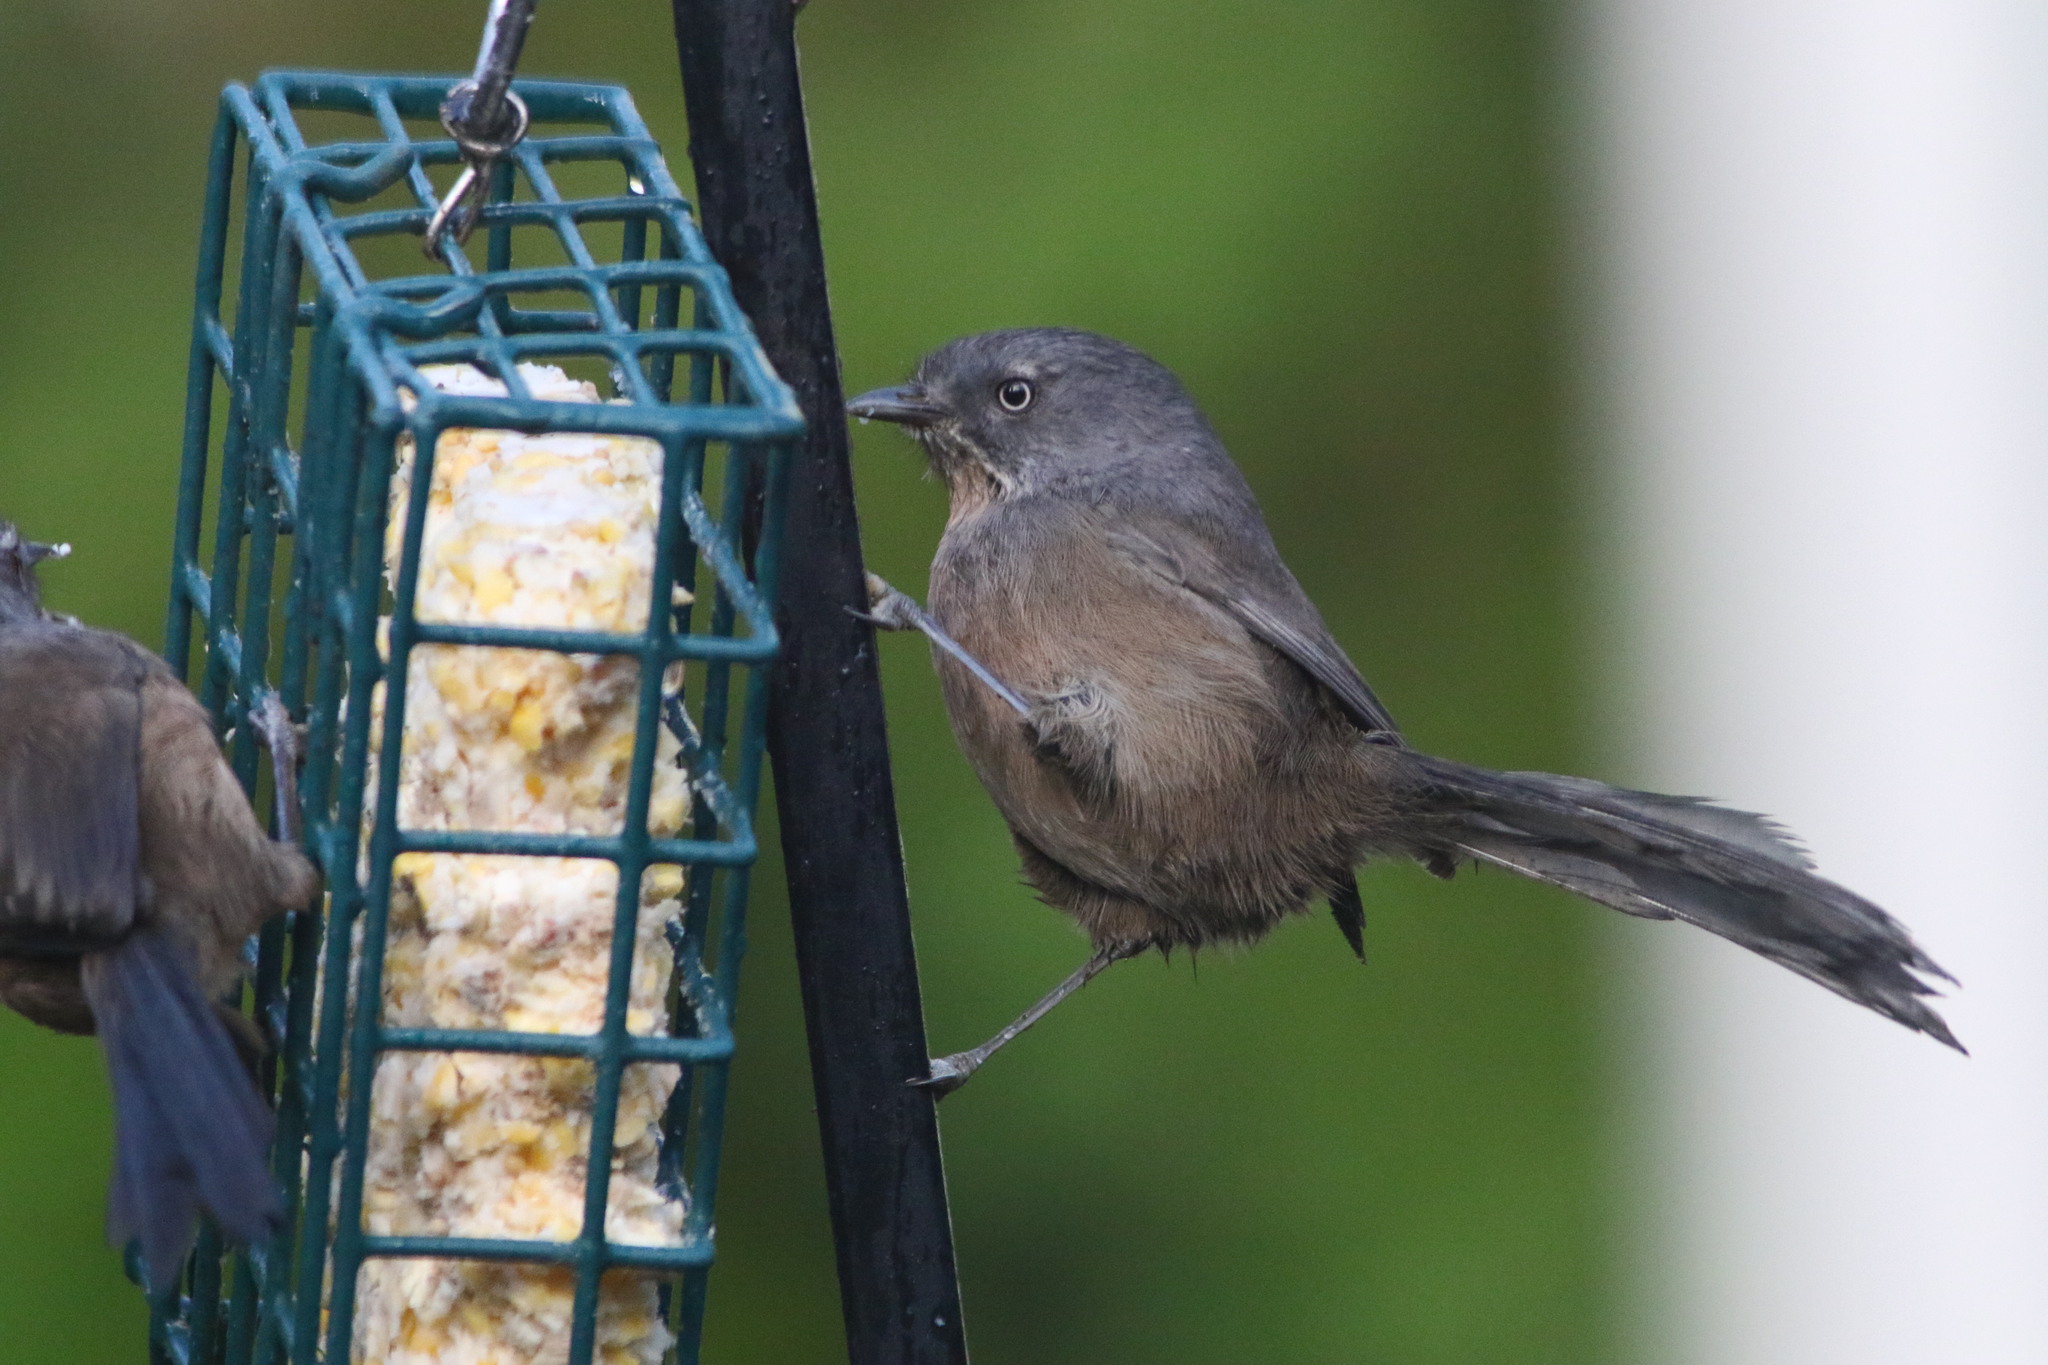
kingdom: Animalia
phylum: Chordata
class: Aves
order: Passeriformes
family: Sylviidae
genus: Chamaea
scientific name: Chamaea fasciata
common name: Wrentit
